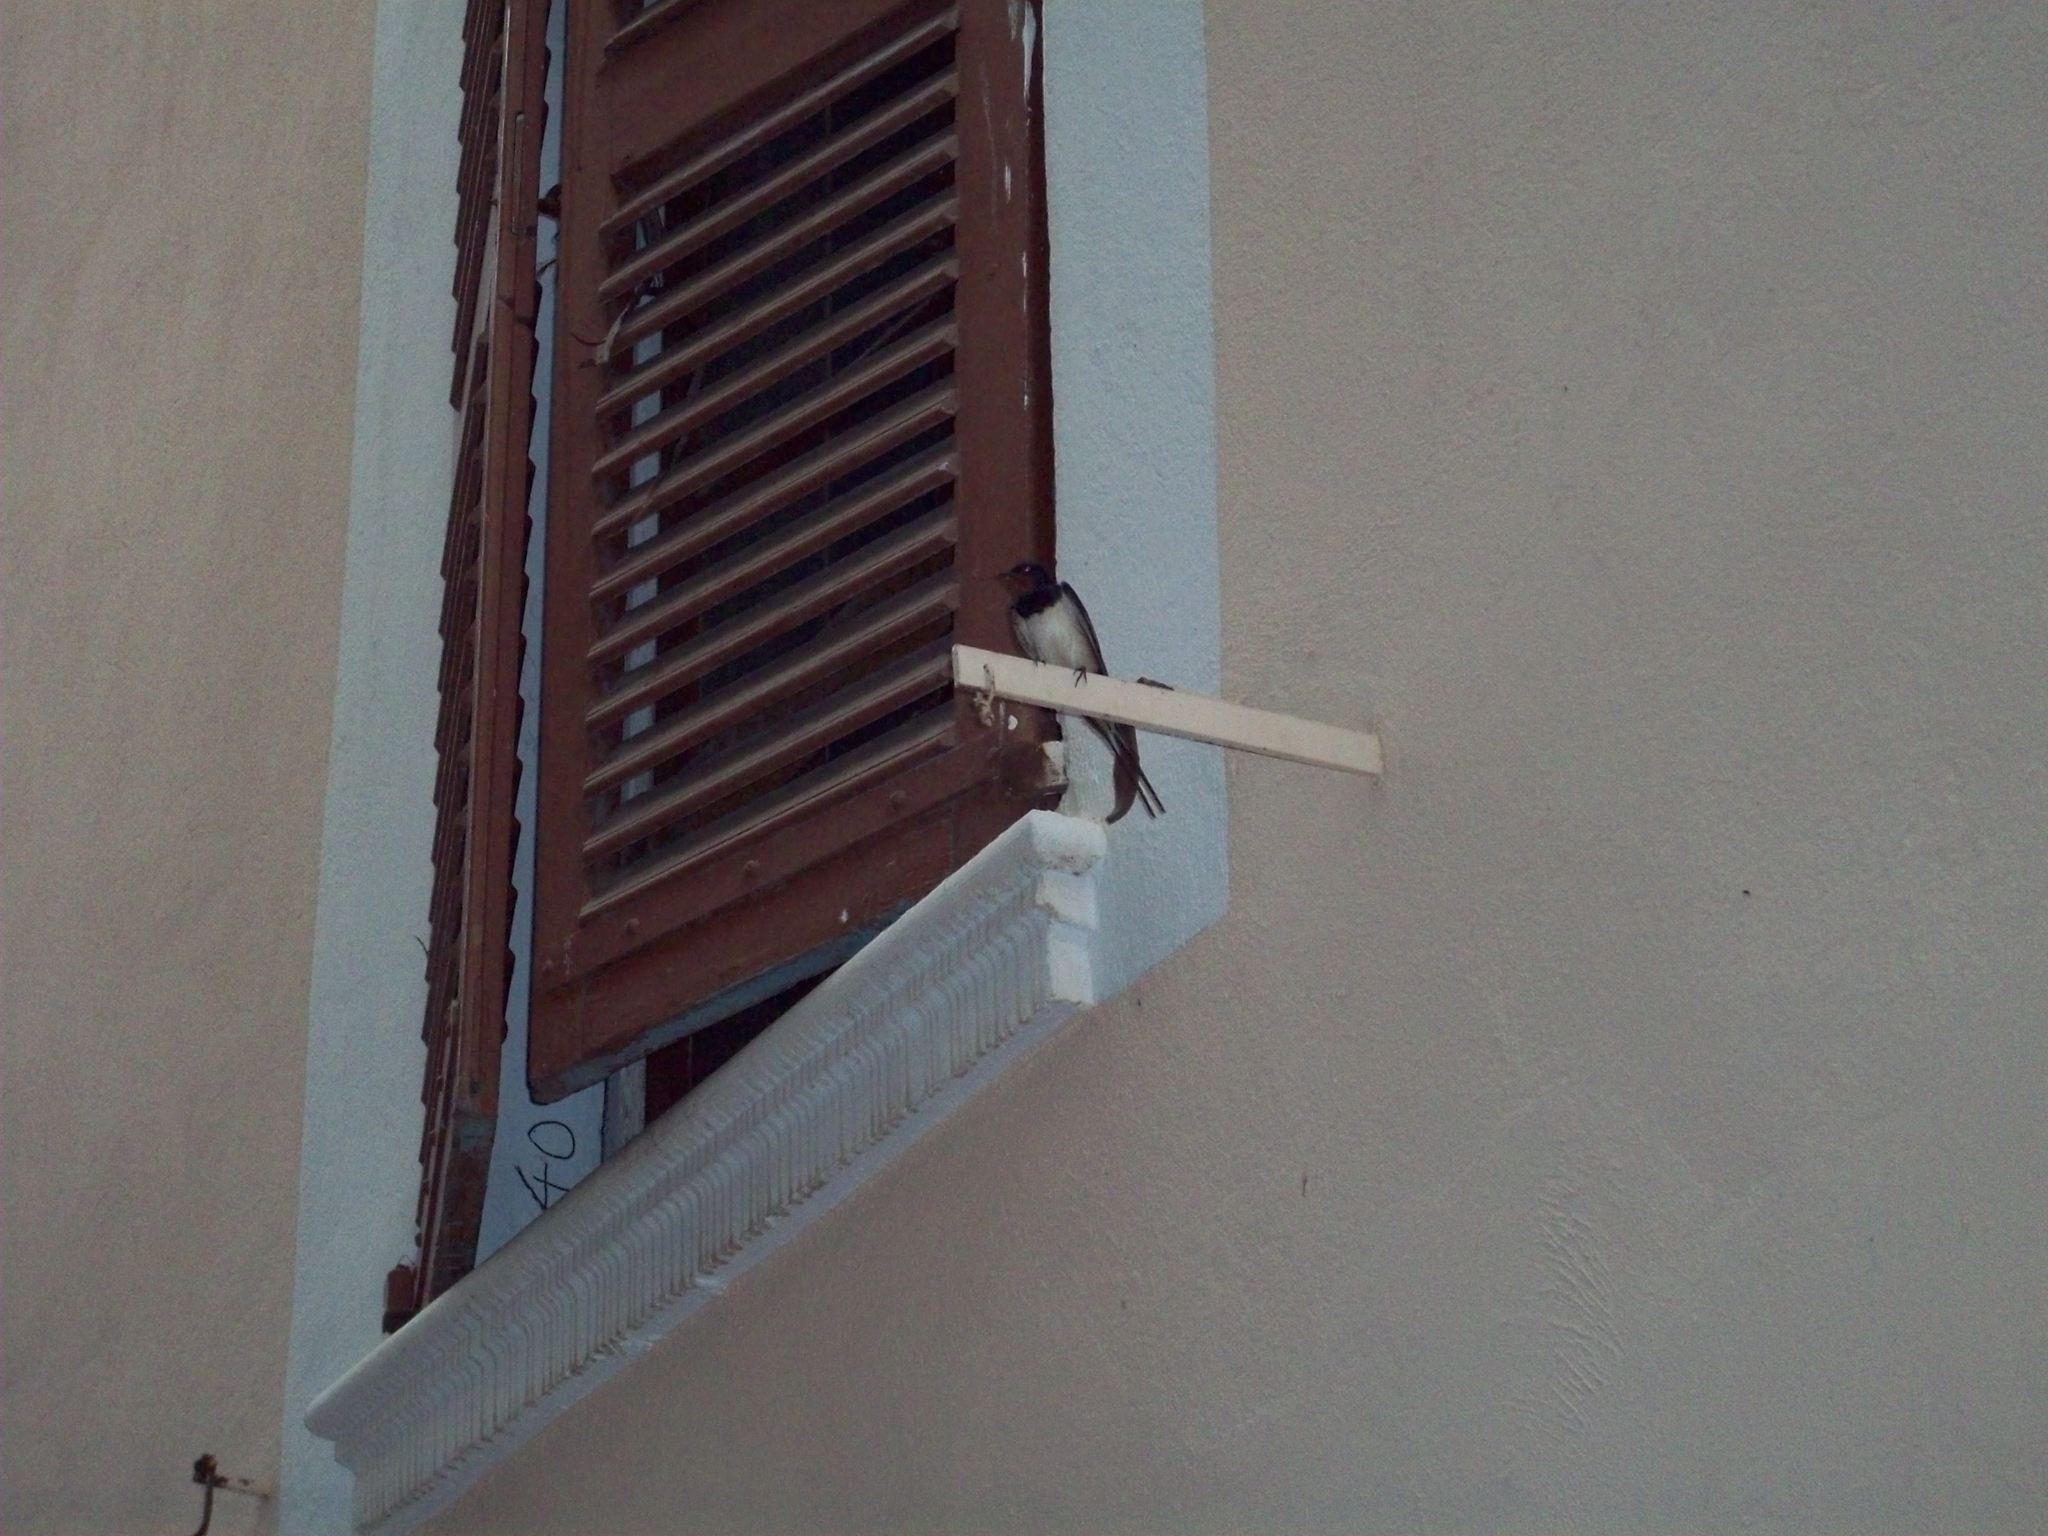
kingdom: Animalia
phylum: Chordata
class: Aves
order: Passeriformes
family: Hirundinidae
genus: Hirundo
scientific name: Hirundo rustica
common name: Barn swallow
